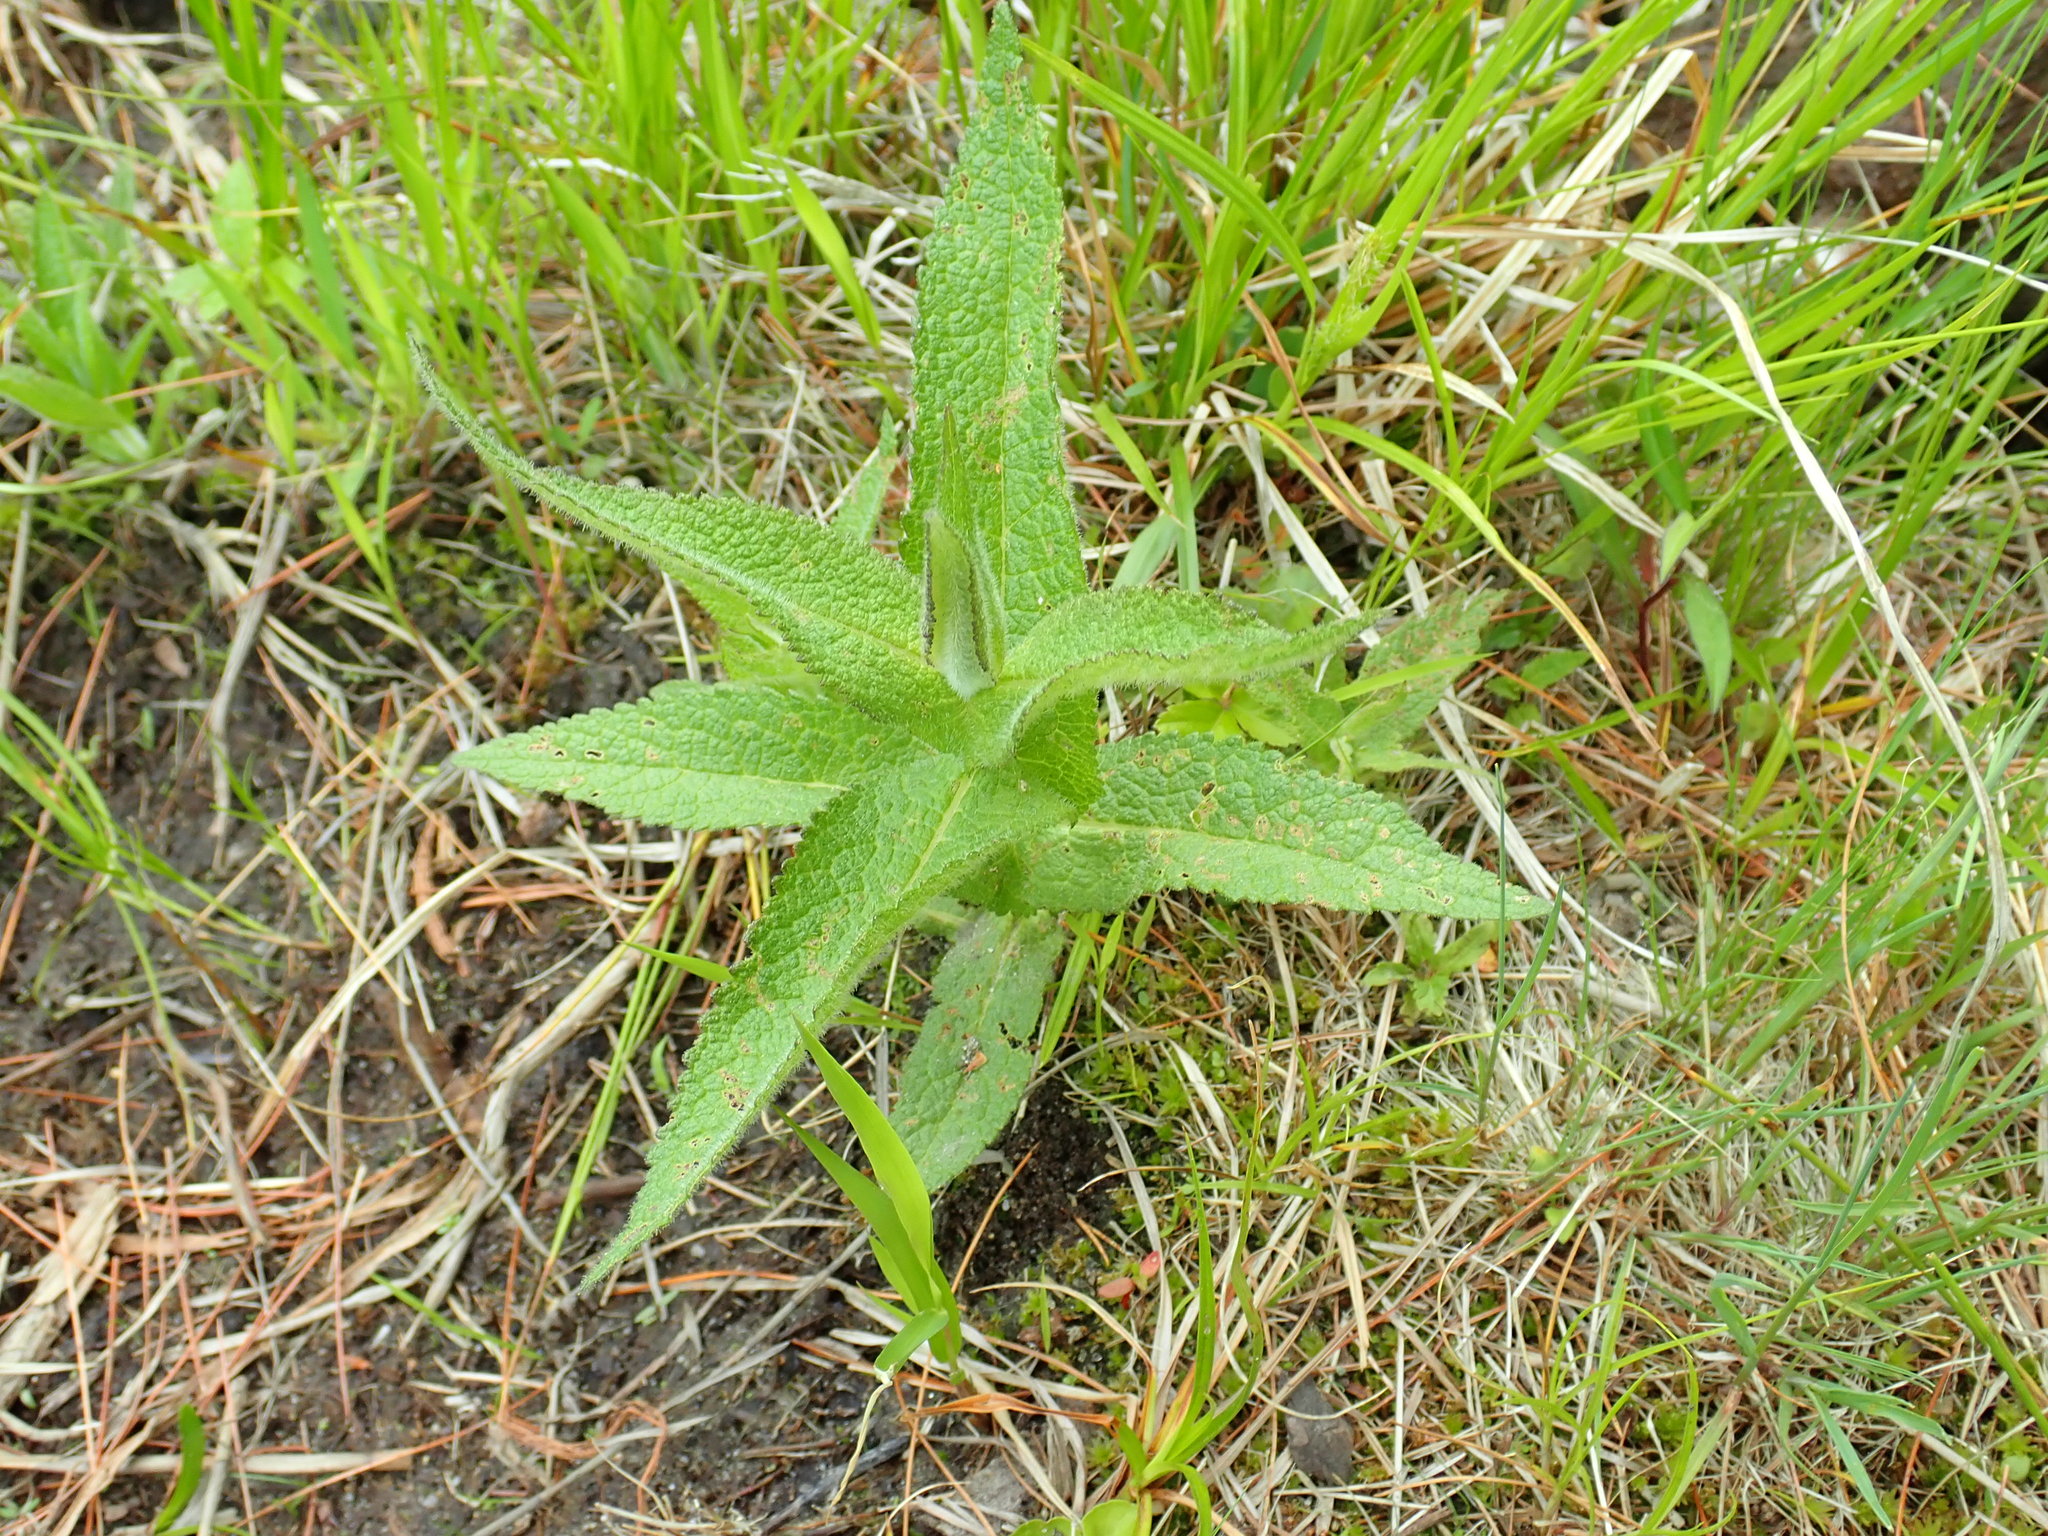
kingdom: Plantae
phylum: Tracheophyta
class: Magnoliopsida
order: Asterales
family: Asteraceae
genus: Eupatorium
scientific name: Eupatorium perfoliatum
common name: Boneset
